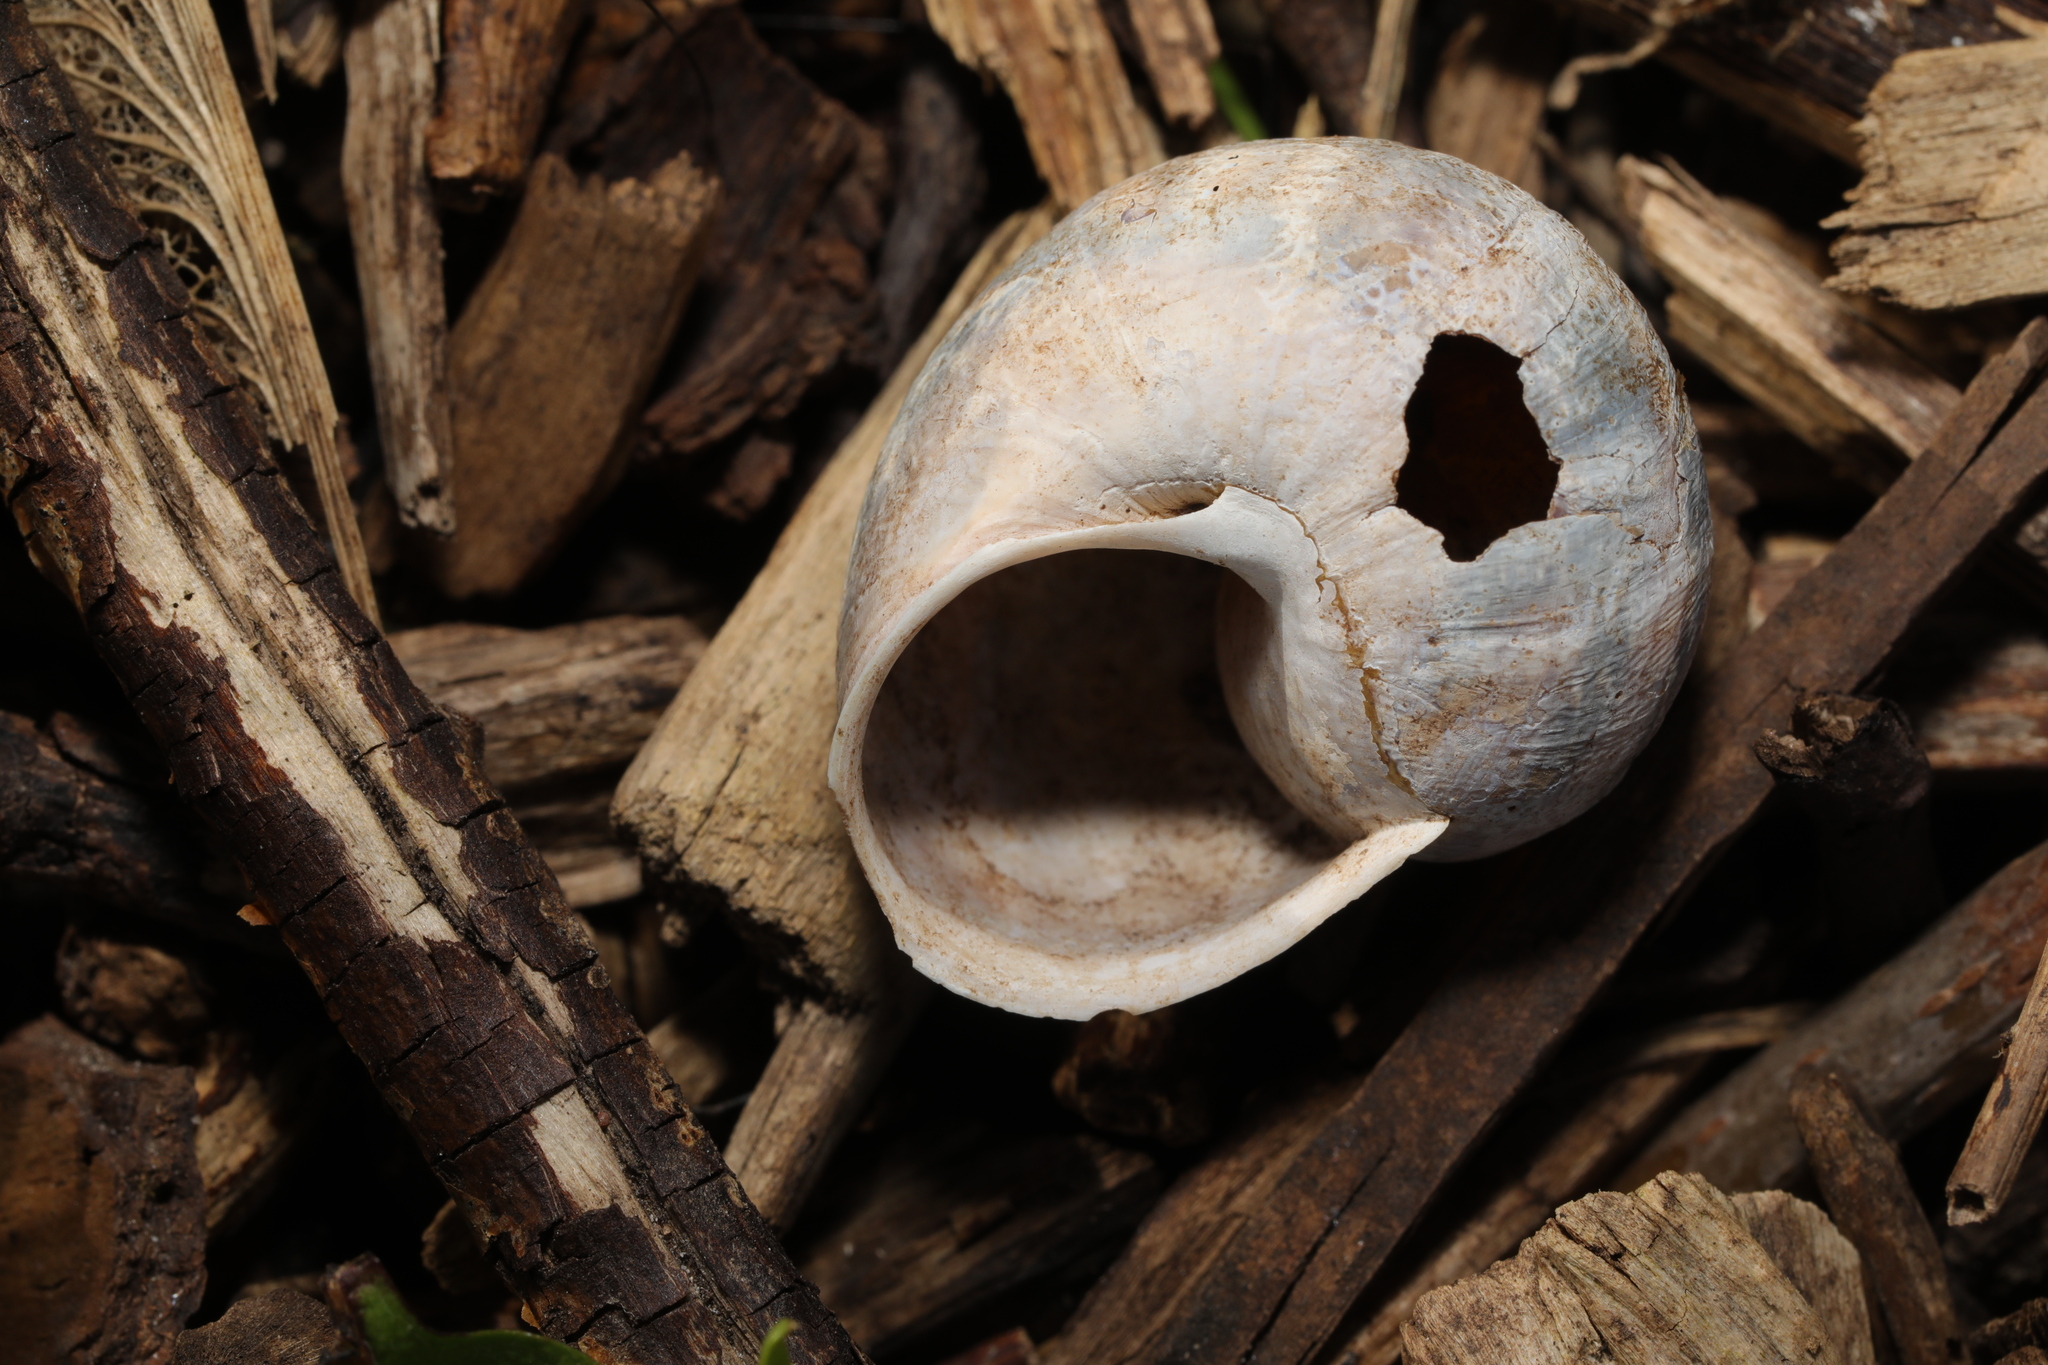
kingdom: Animalia
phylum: Mollusca
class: Gastropoda
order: Stylommatophora
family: Helicidae
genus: Cornu
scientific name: Cornu aspersum
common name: Brown garden snail
